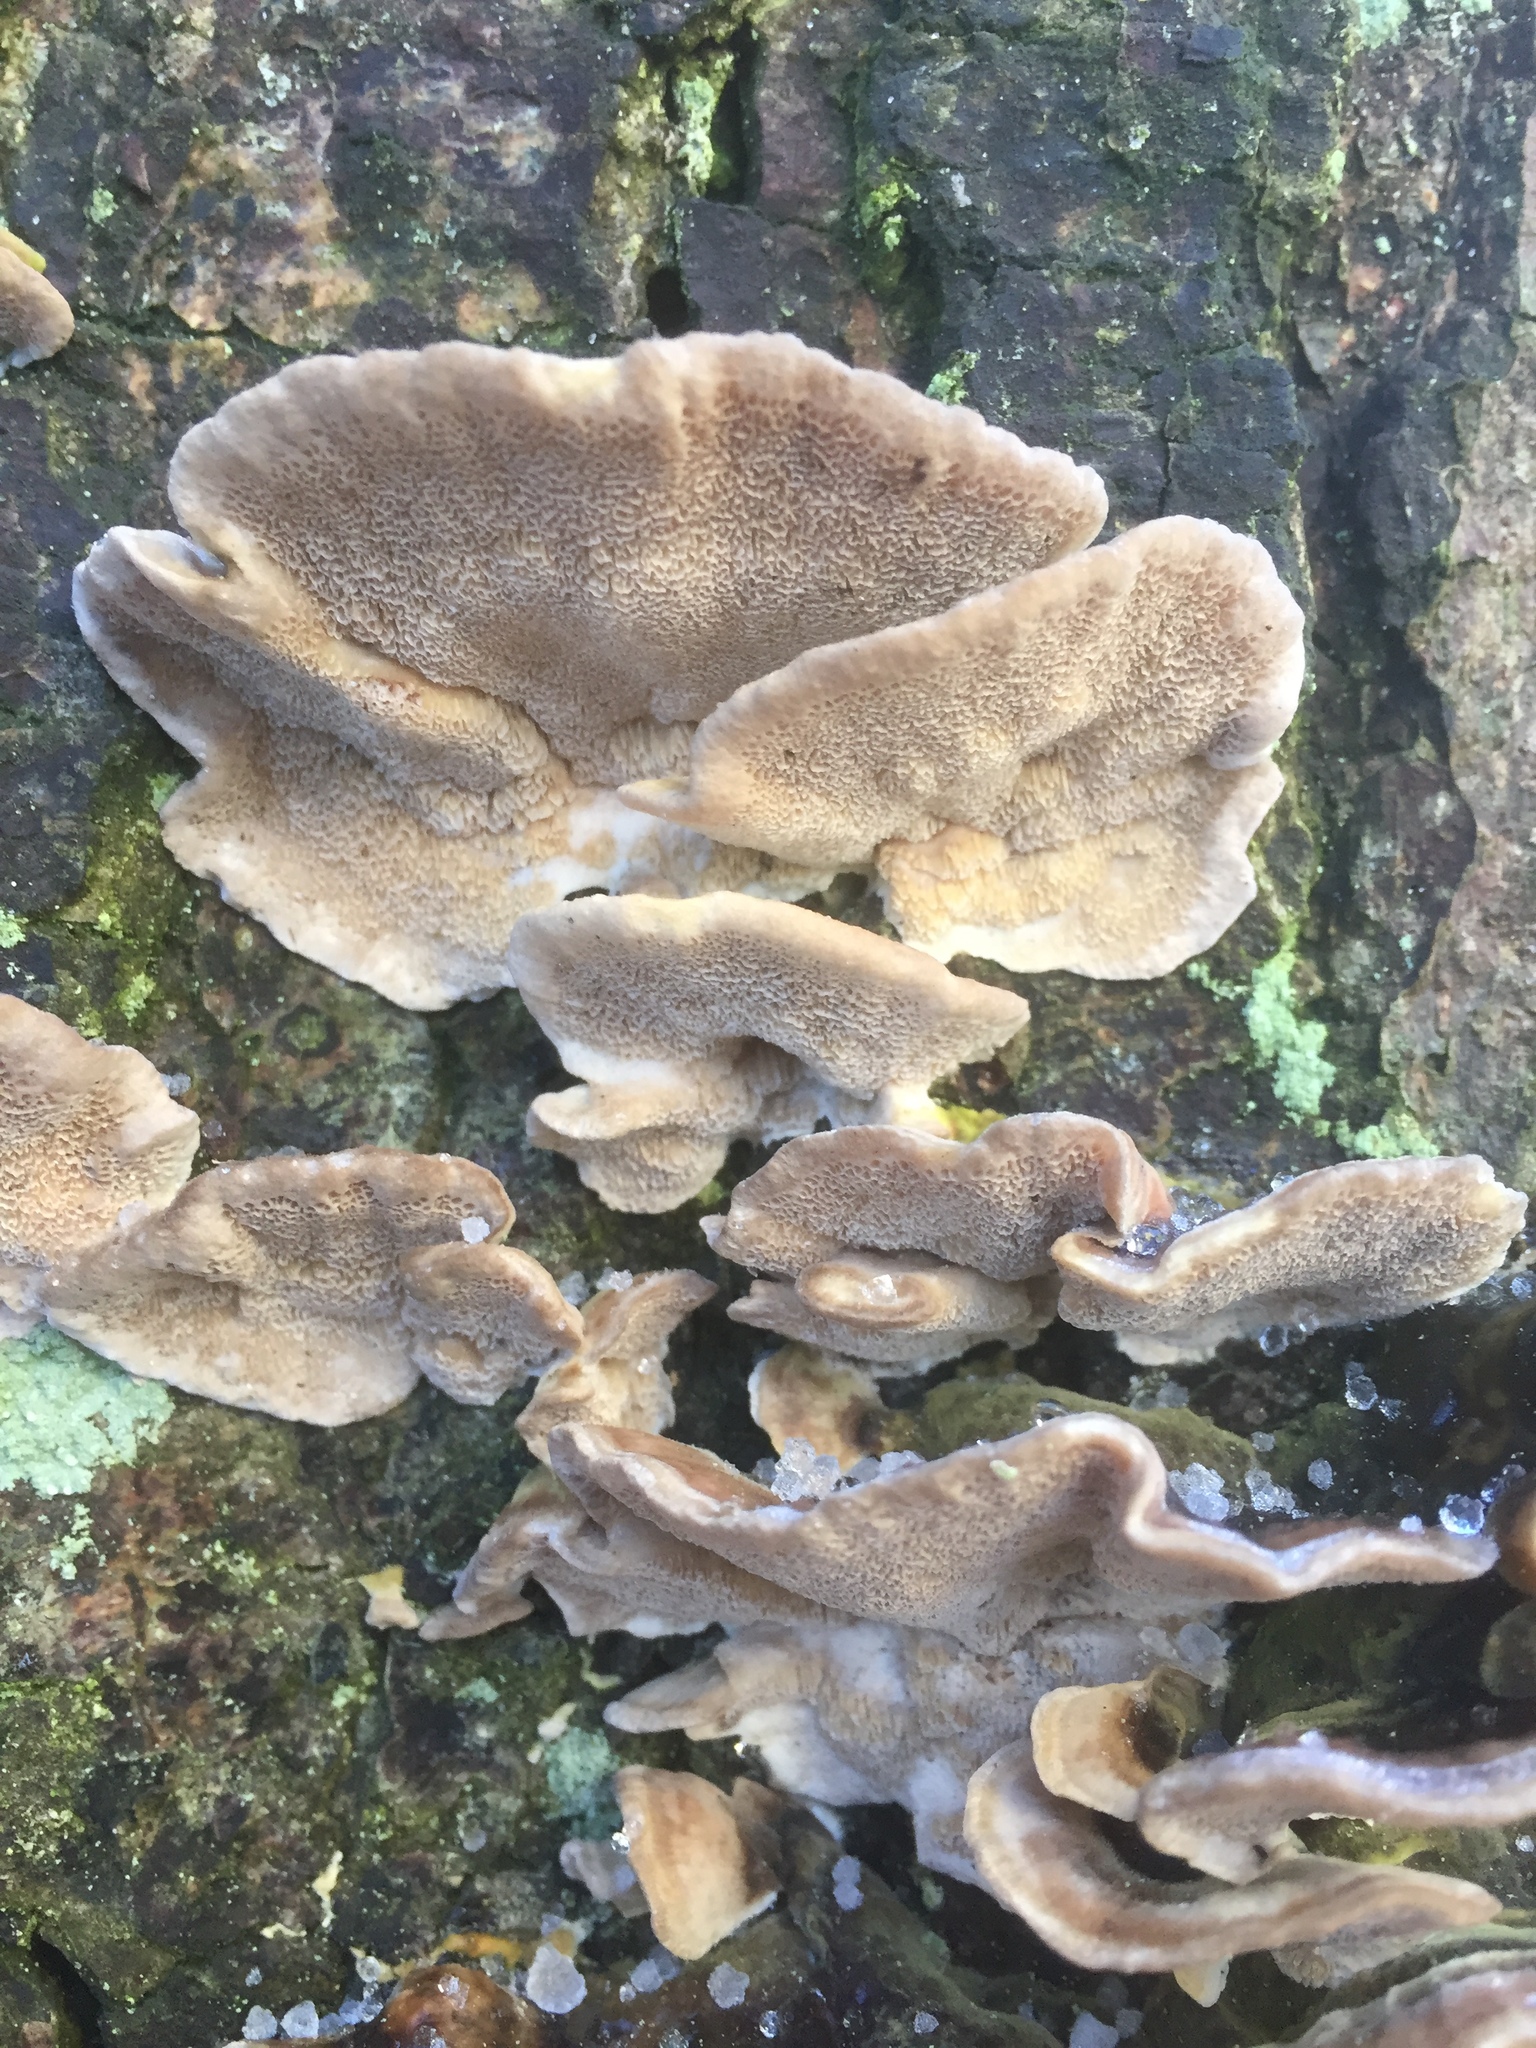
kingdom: Fungi
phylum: Basidiomycota
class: Agaricomycetes
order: Polyporales
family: Polyporaceae
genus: Trametes
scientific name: Trametes versicolor
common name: Turkeytail
